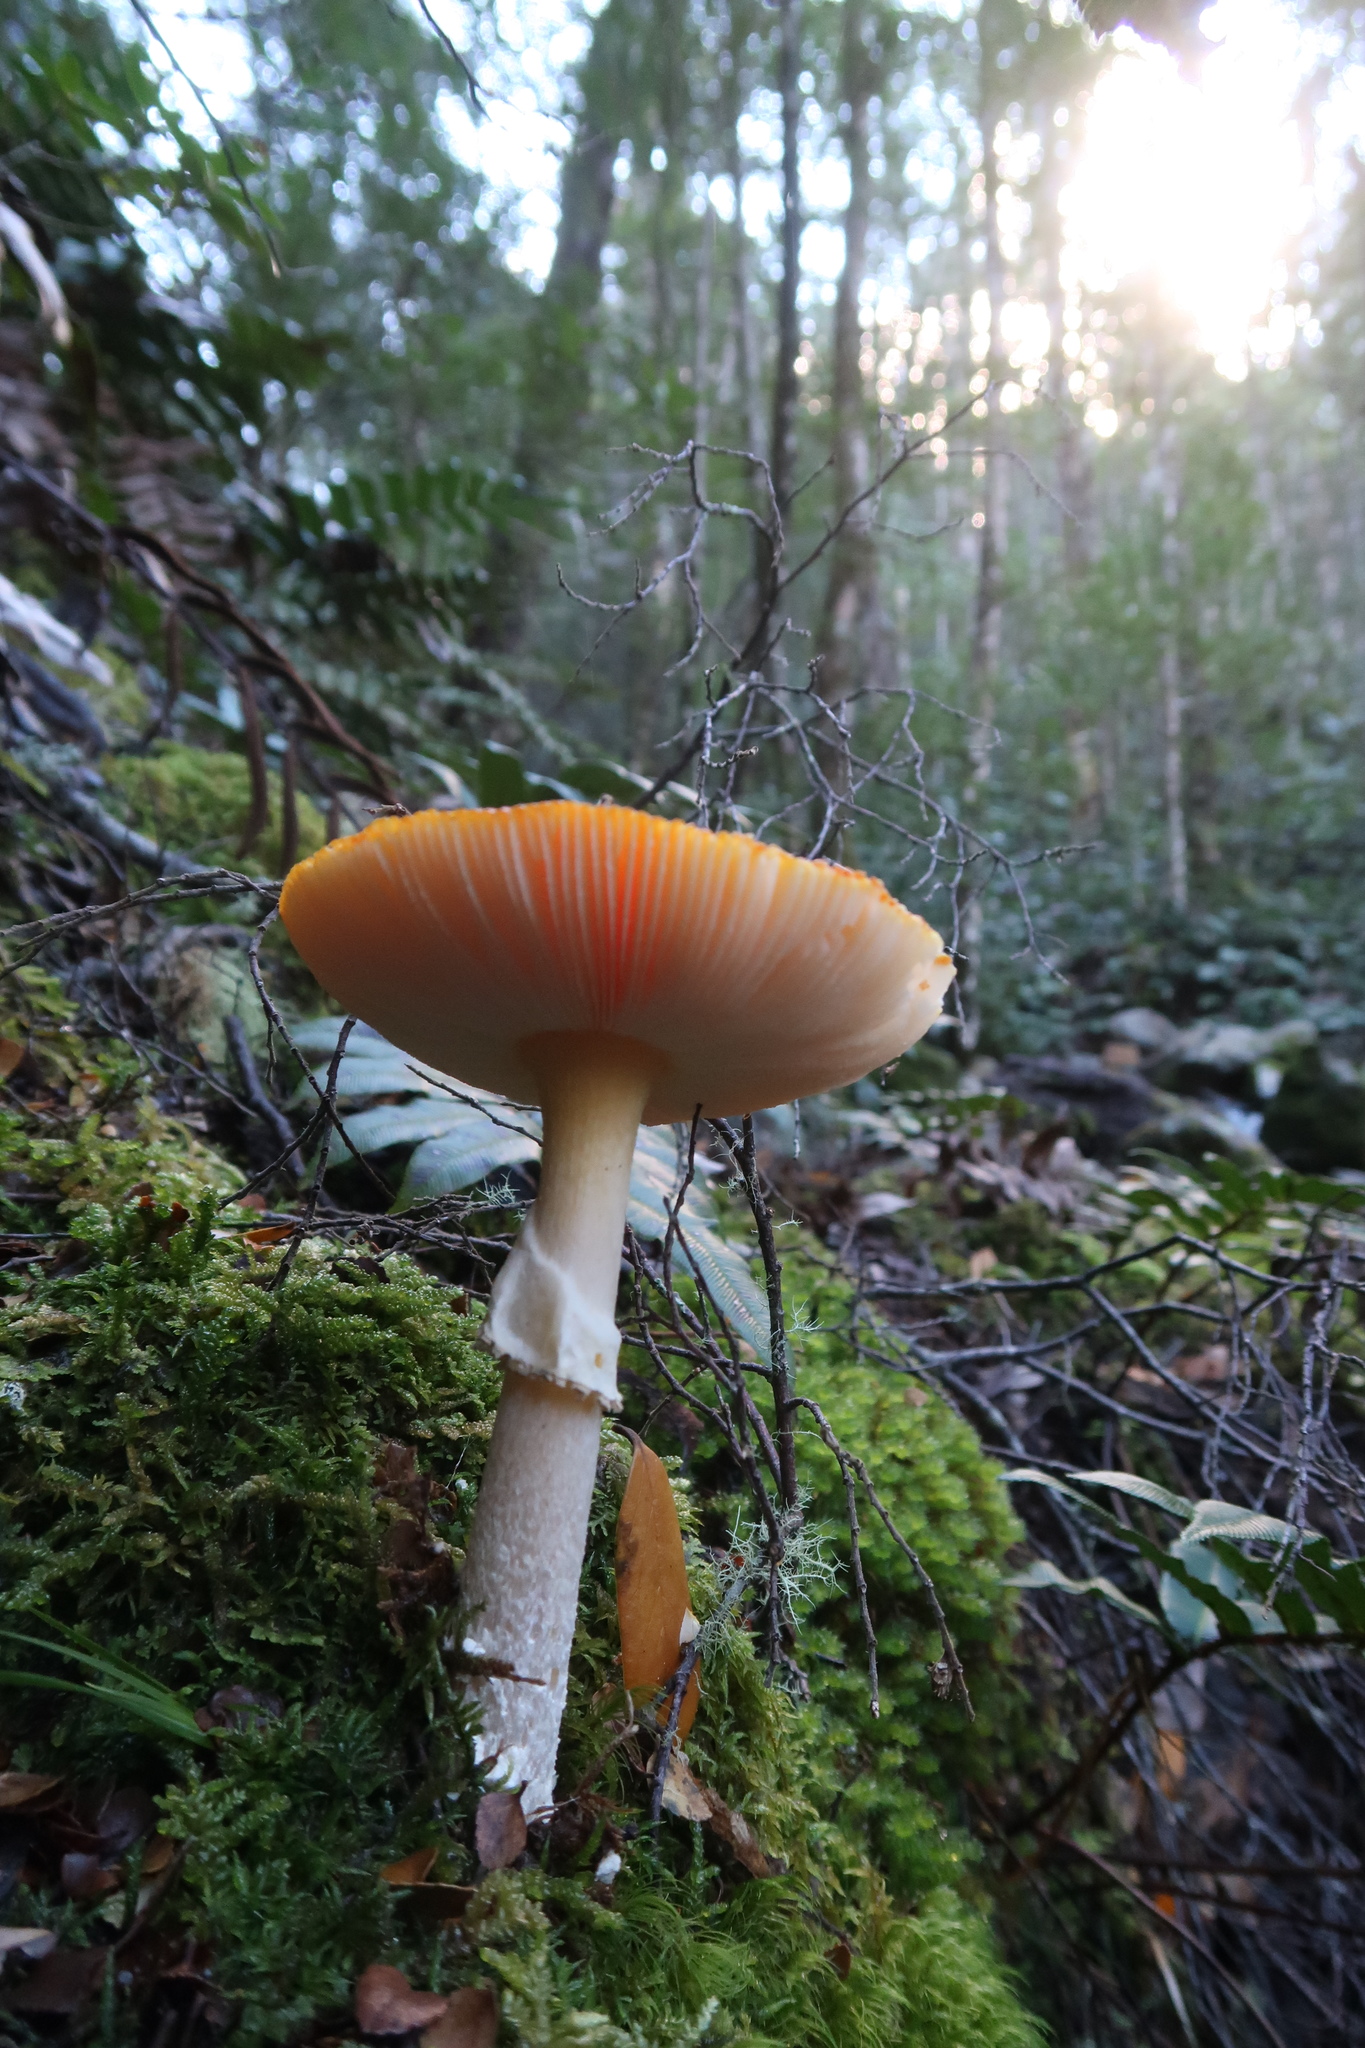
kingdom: Fungi
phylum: Basidiomycota
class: Agaricomycetes
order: Agaricales
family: Amanitaceae
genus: Amanita
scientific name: Amanita muscaria
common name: Fly agaric
